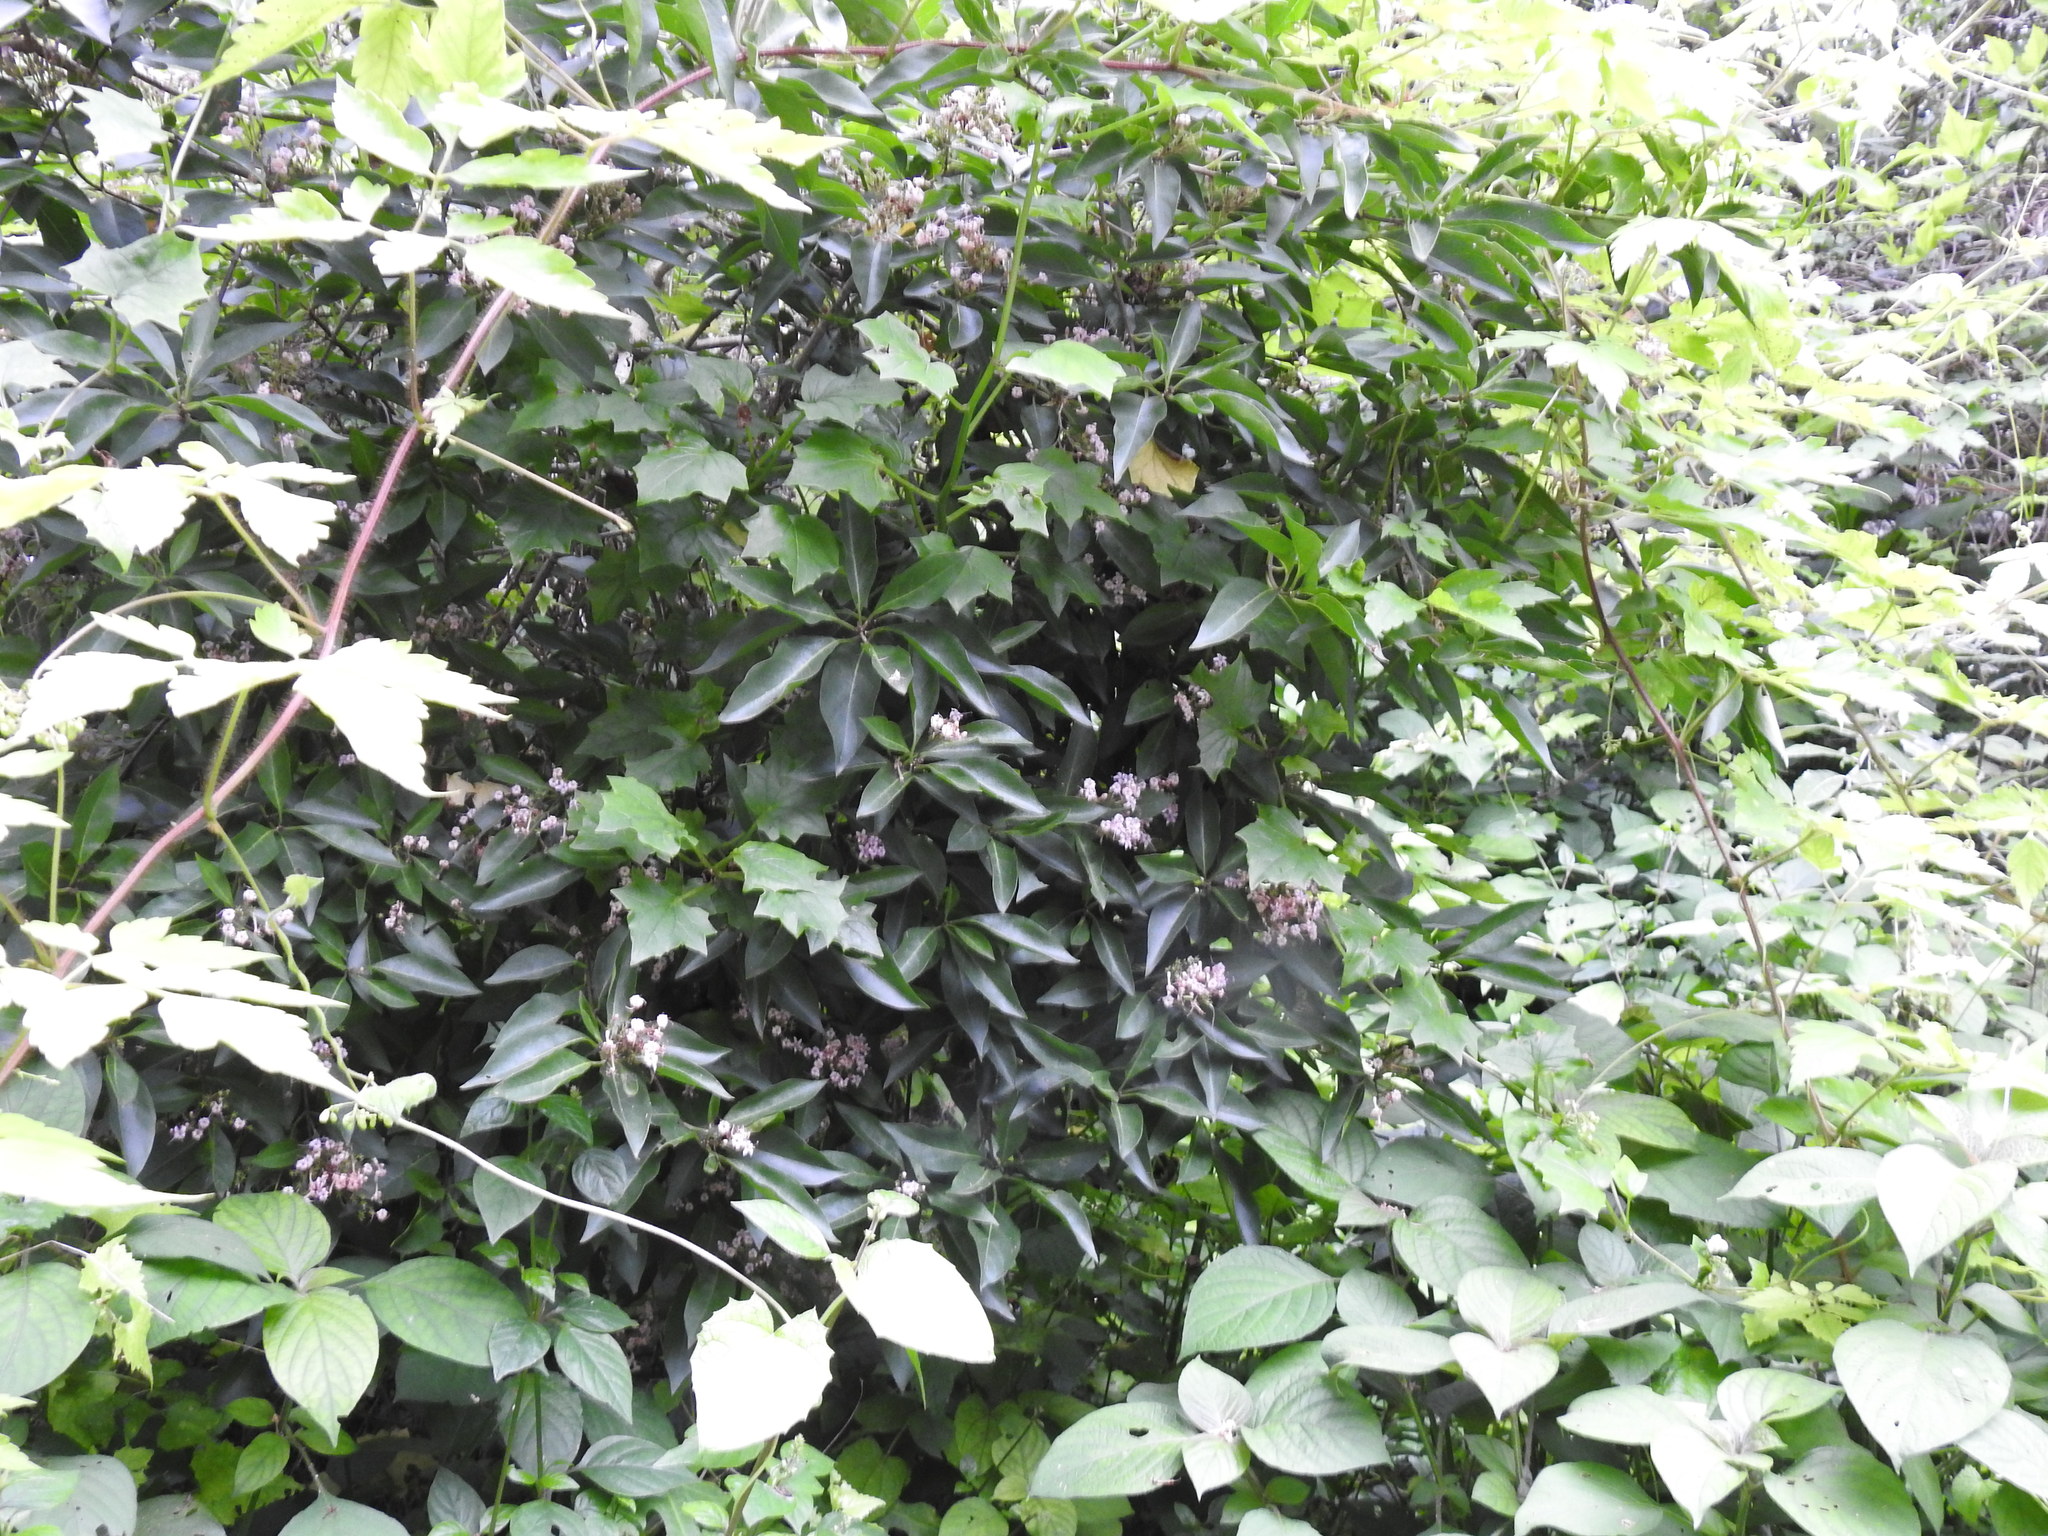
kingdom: Plantae
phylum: Tracheophyta
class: Magnoliopsida
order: Lamiales
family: Lamiaceae
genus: Volkameria
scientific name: Volkameria glabra
